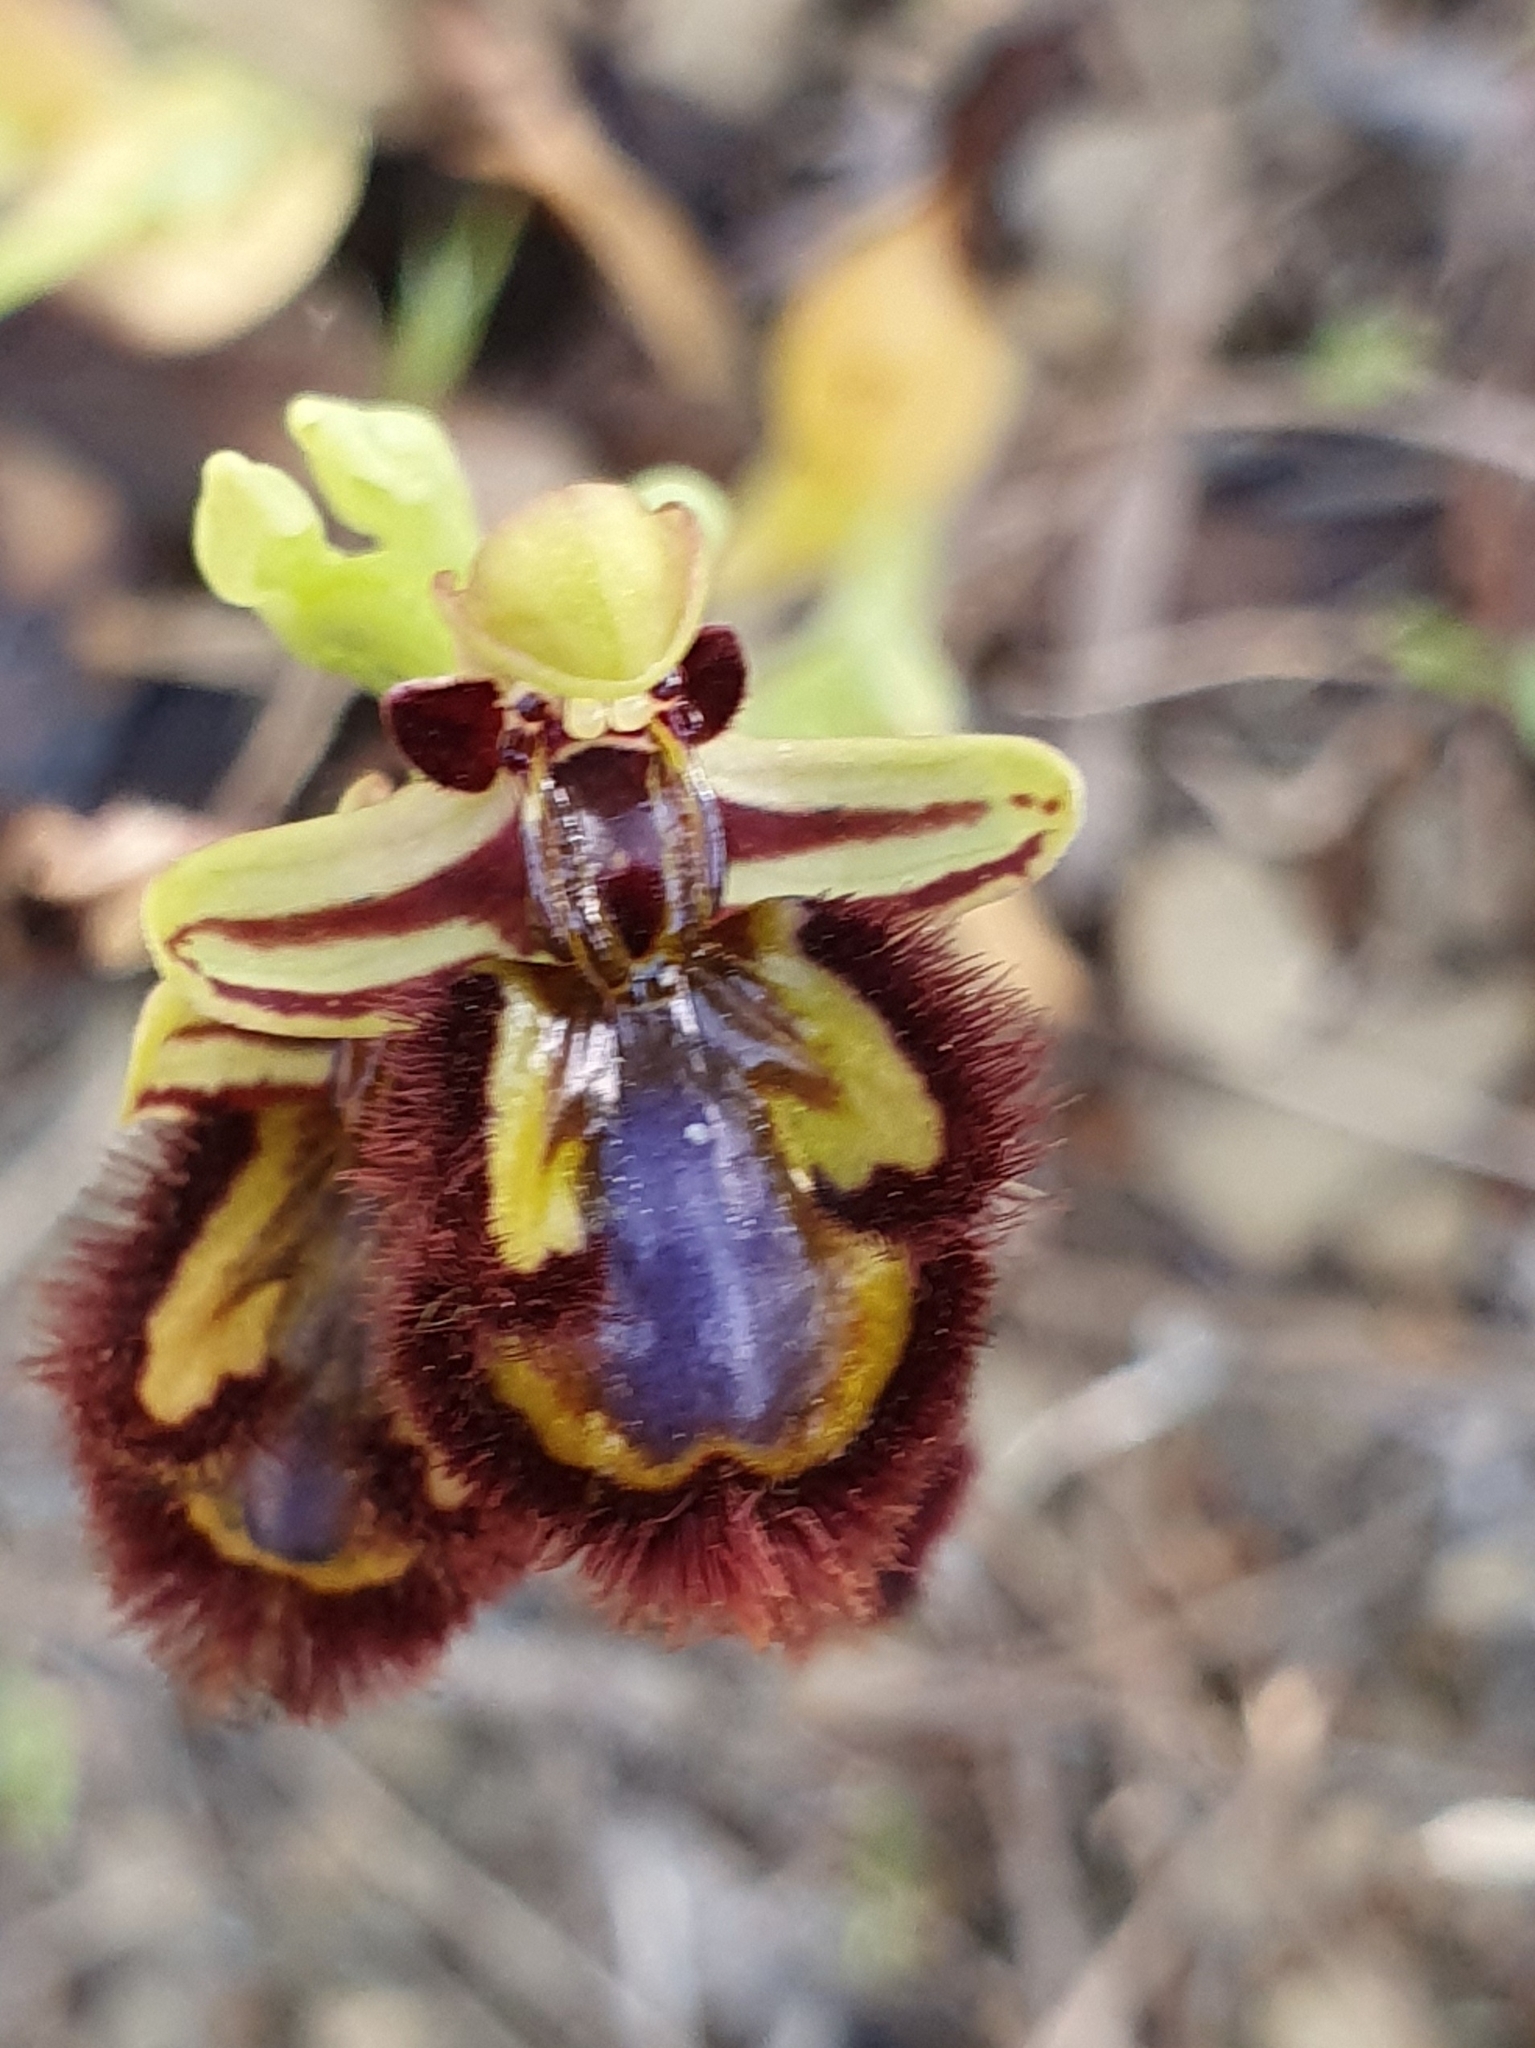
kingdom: Plantae
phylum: Tracheophyta
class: Liliopsida
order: Asparagales
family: Orchidaceae
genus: Ophrys
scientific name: Ophrys speculum
